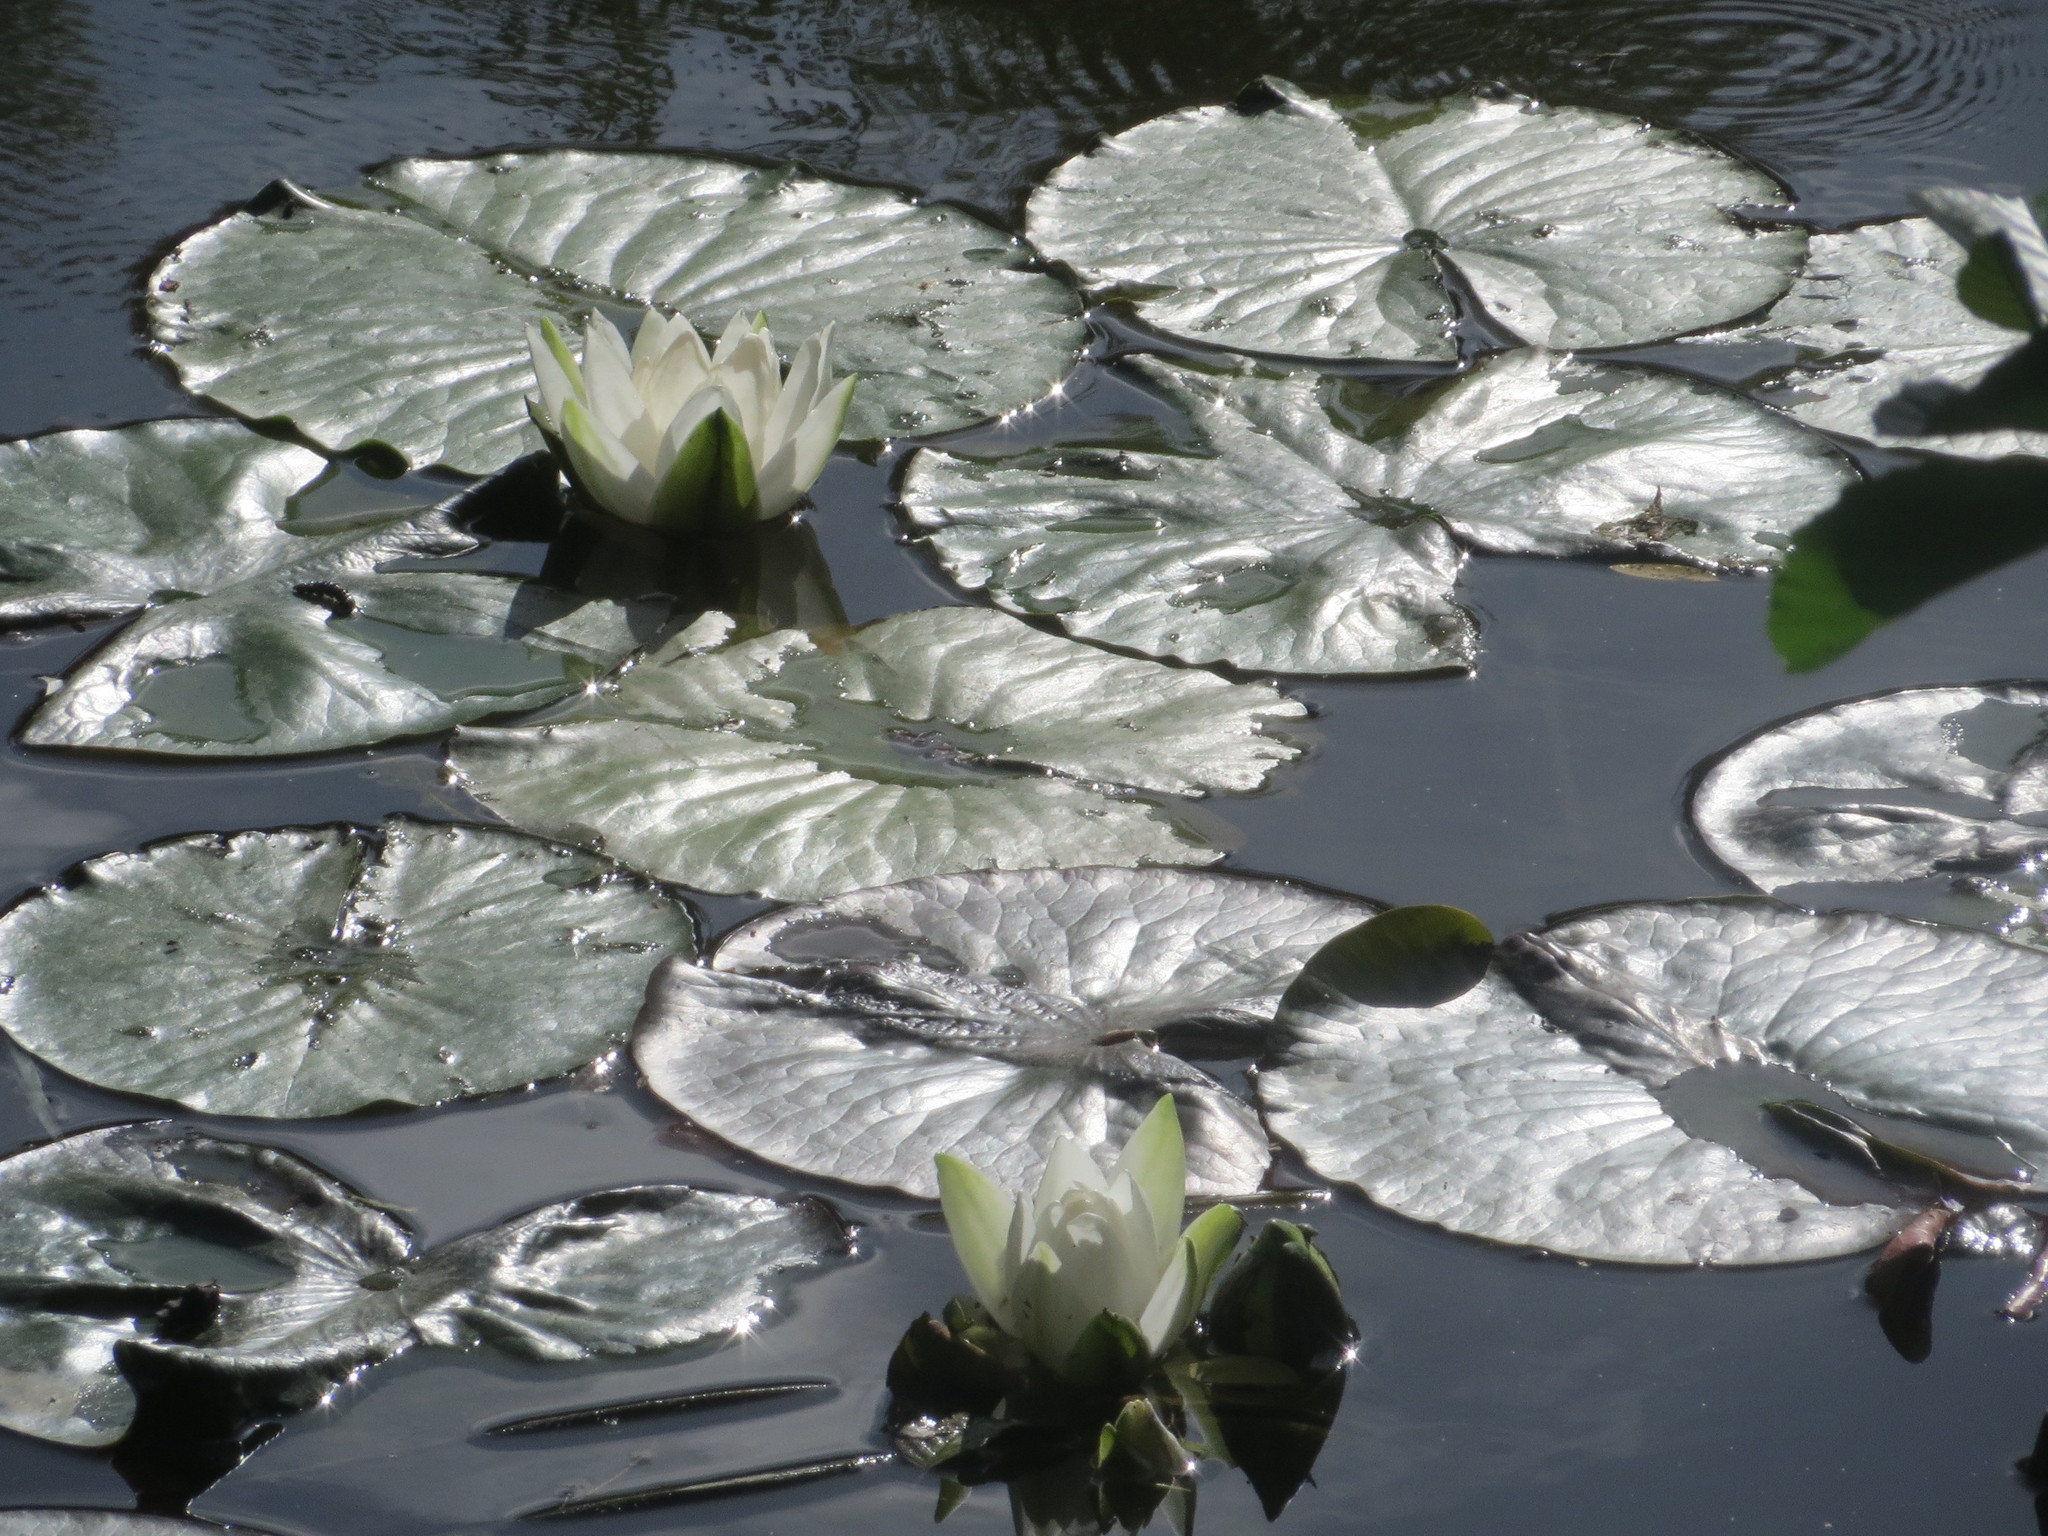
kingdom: Plantae
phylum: Tracheophyta
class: Magnoliopsida
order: Nymphaeales
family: Nymphaeaceae
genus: Nymphaea
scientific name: Nymphaea alba
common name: White water-lily
